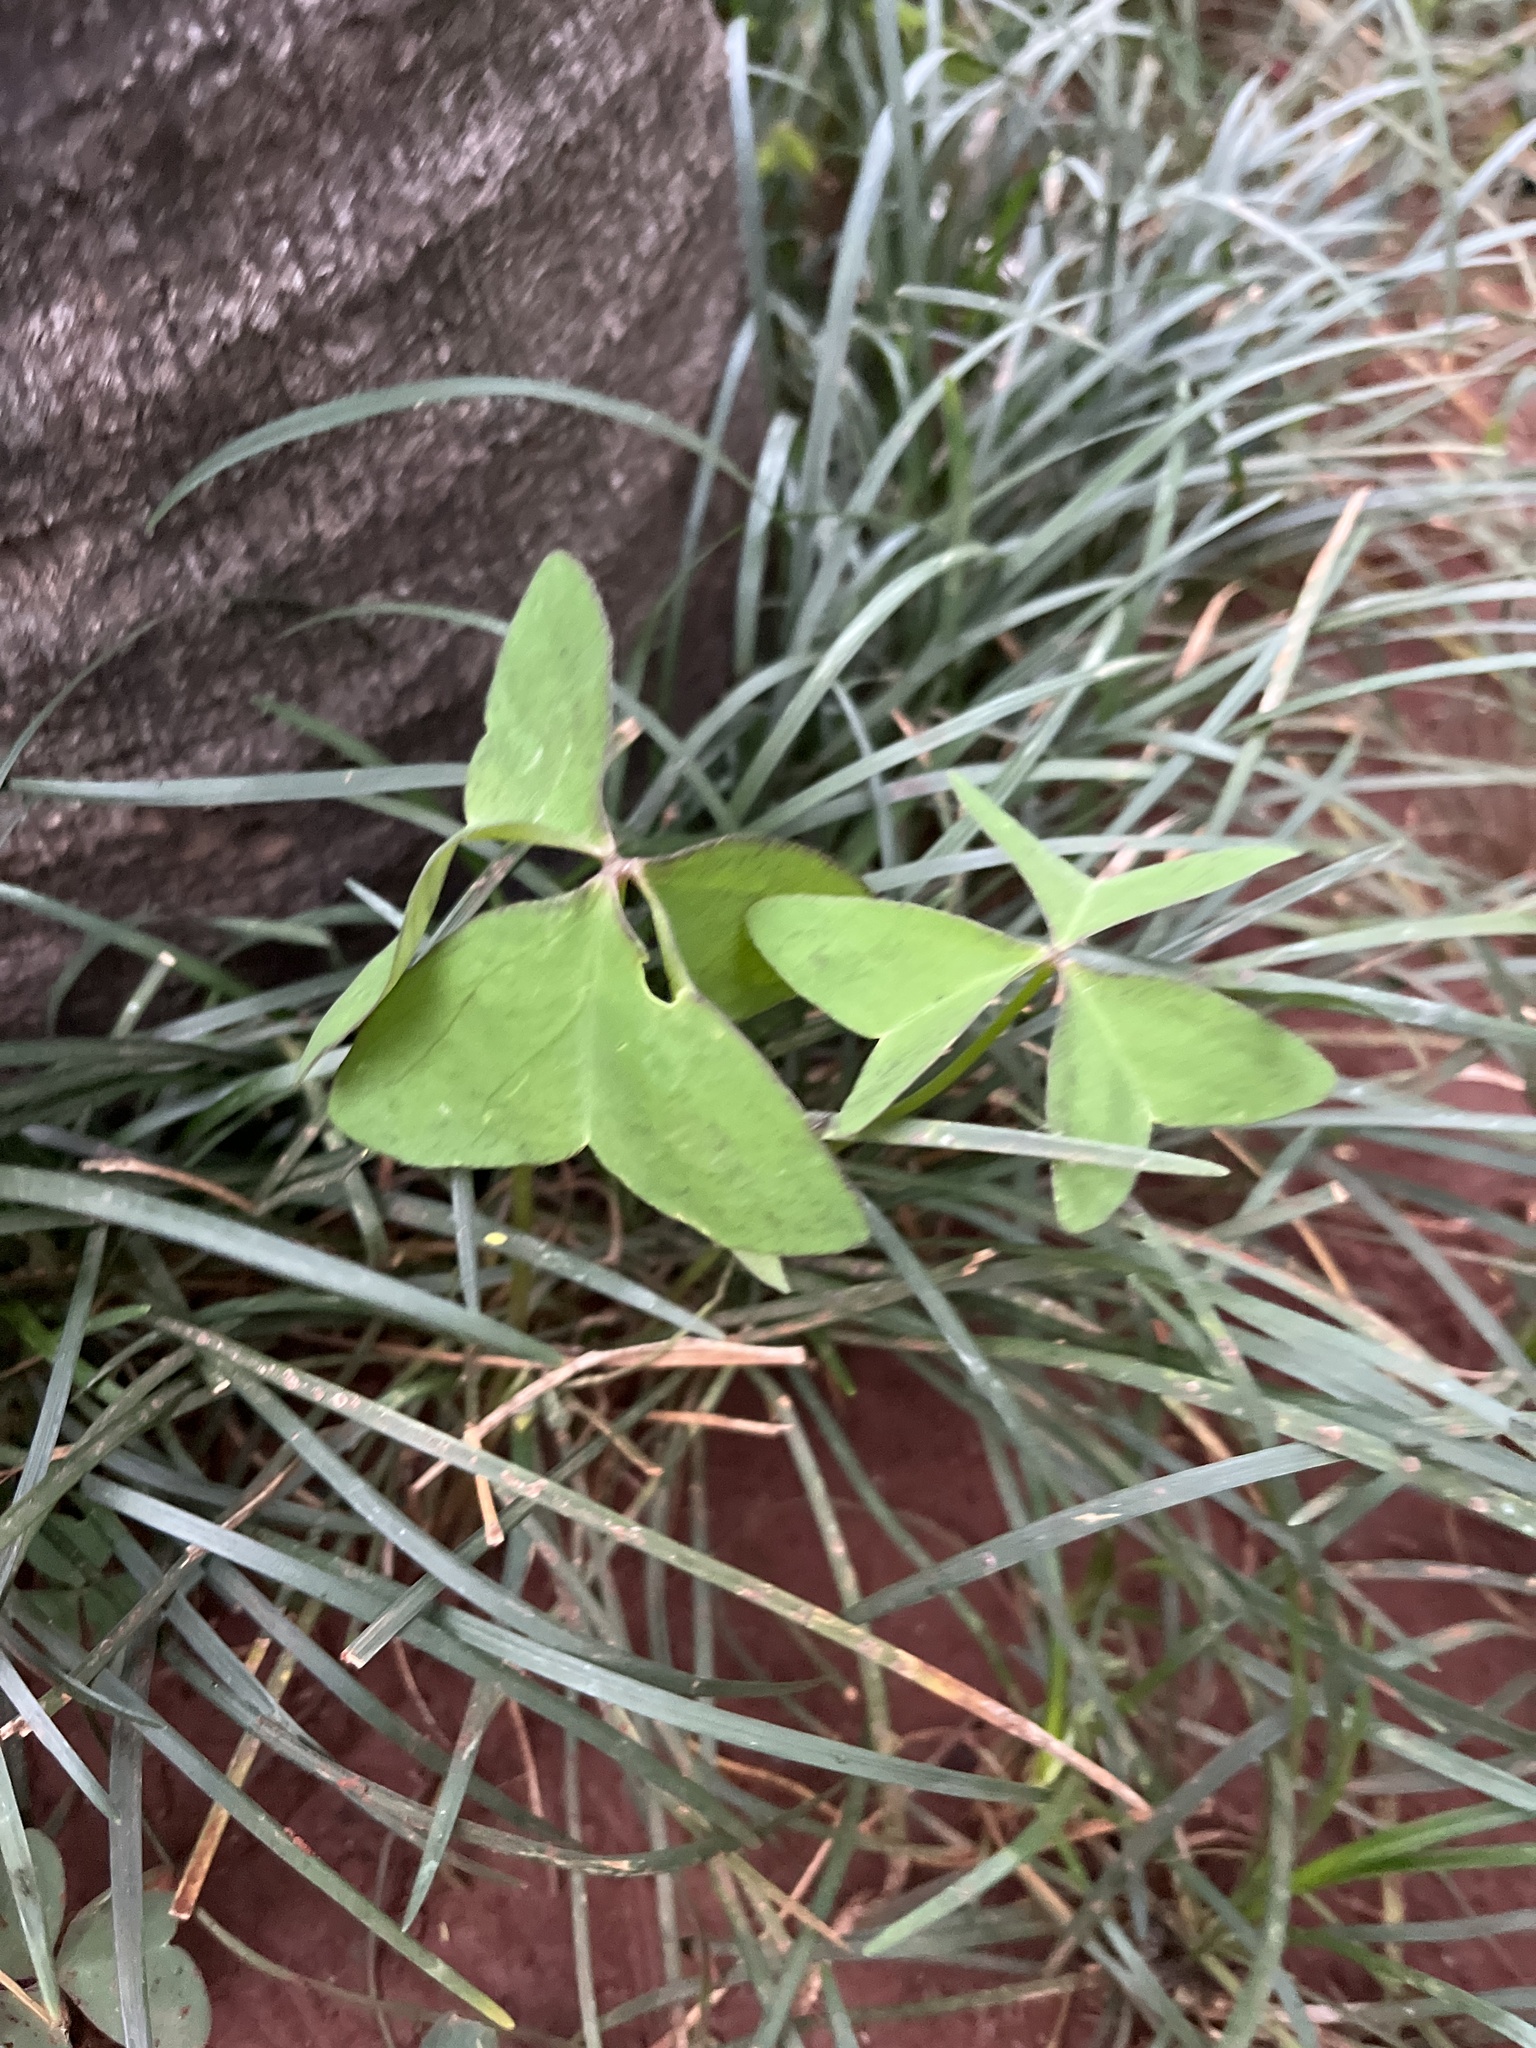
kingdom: Plantae
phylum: Tracheophyta
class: Magnoliopsida
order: Oxalidales
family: Oxalidaceae
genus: Oxalis
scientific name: Oxalis latifolia
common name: Garden pink-sorrel
